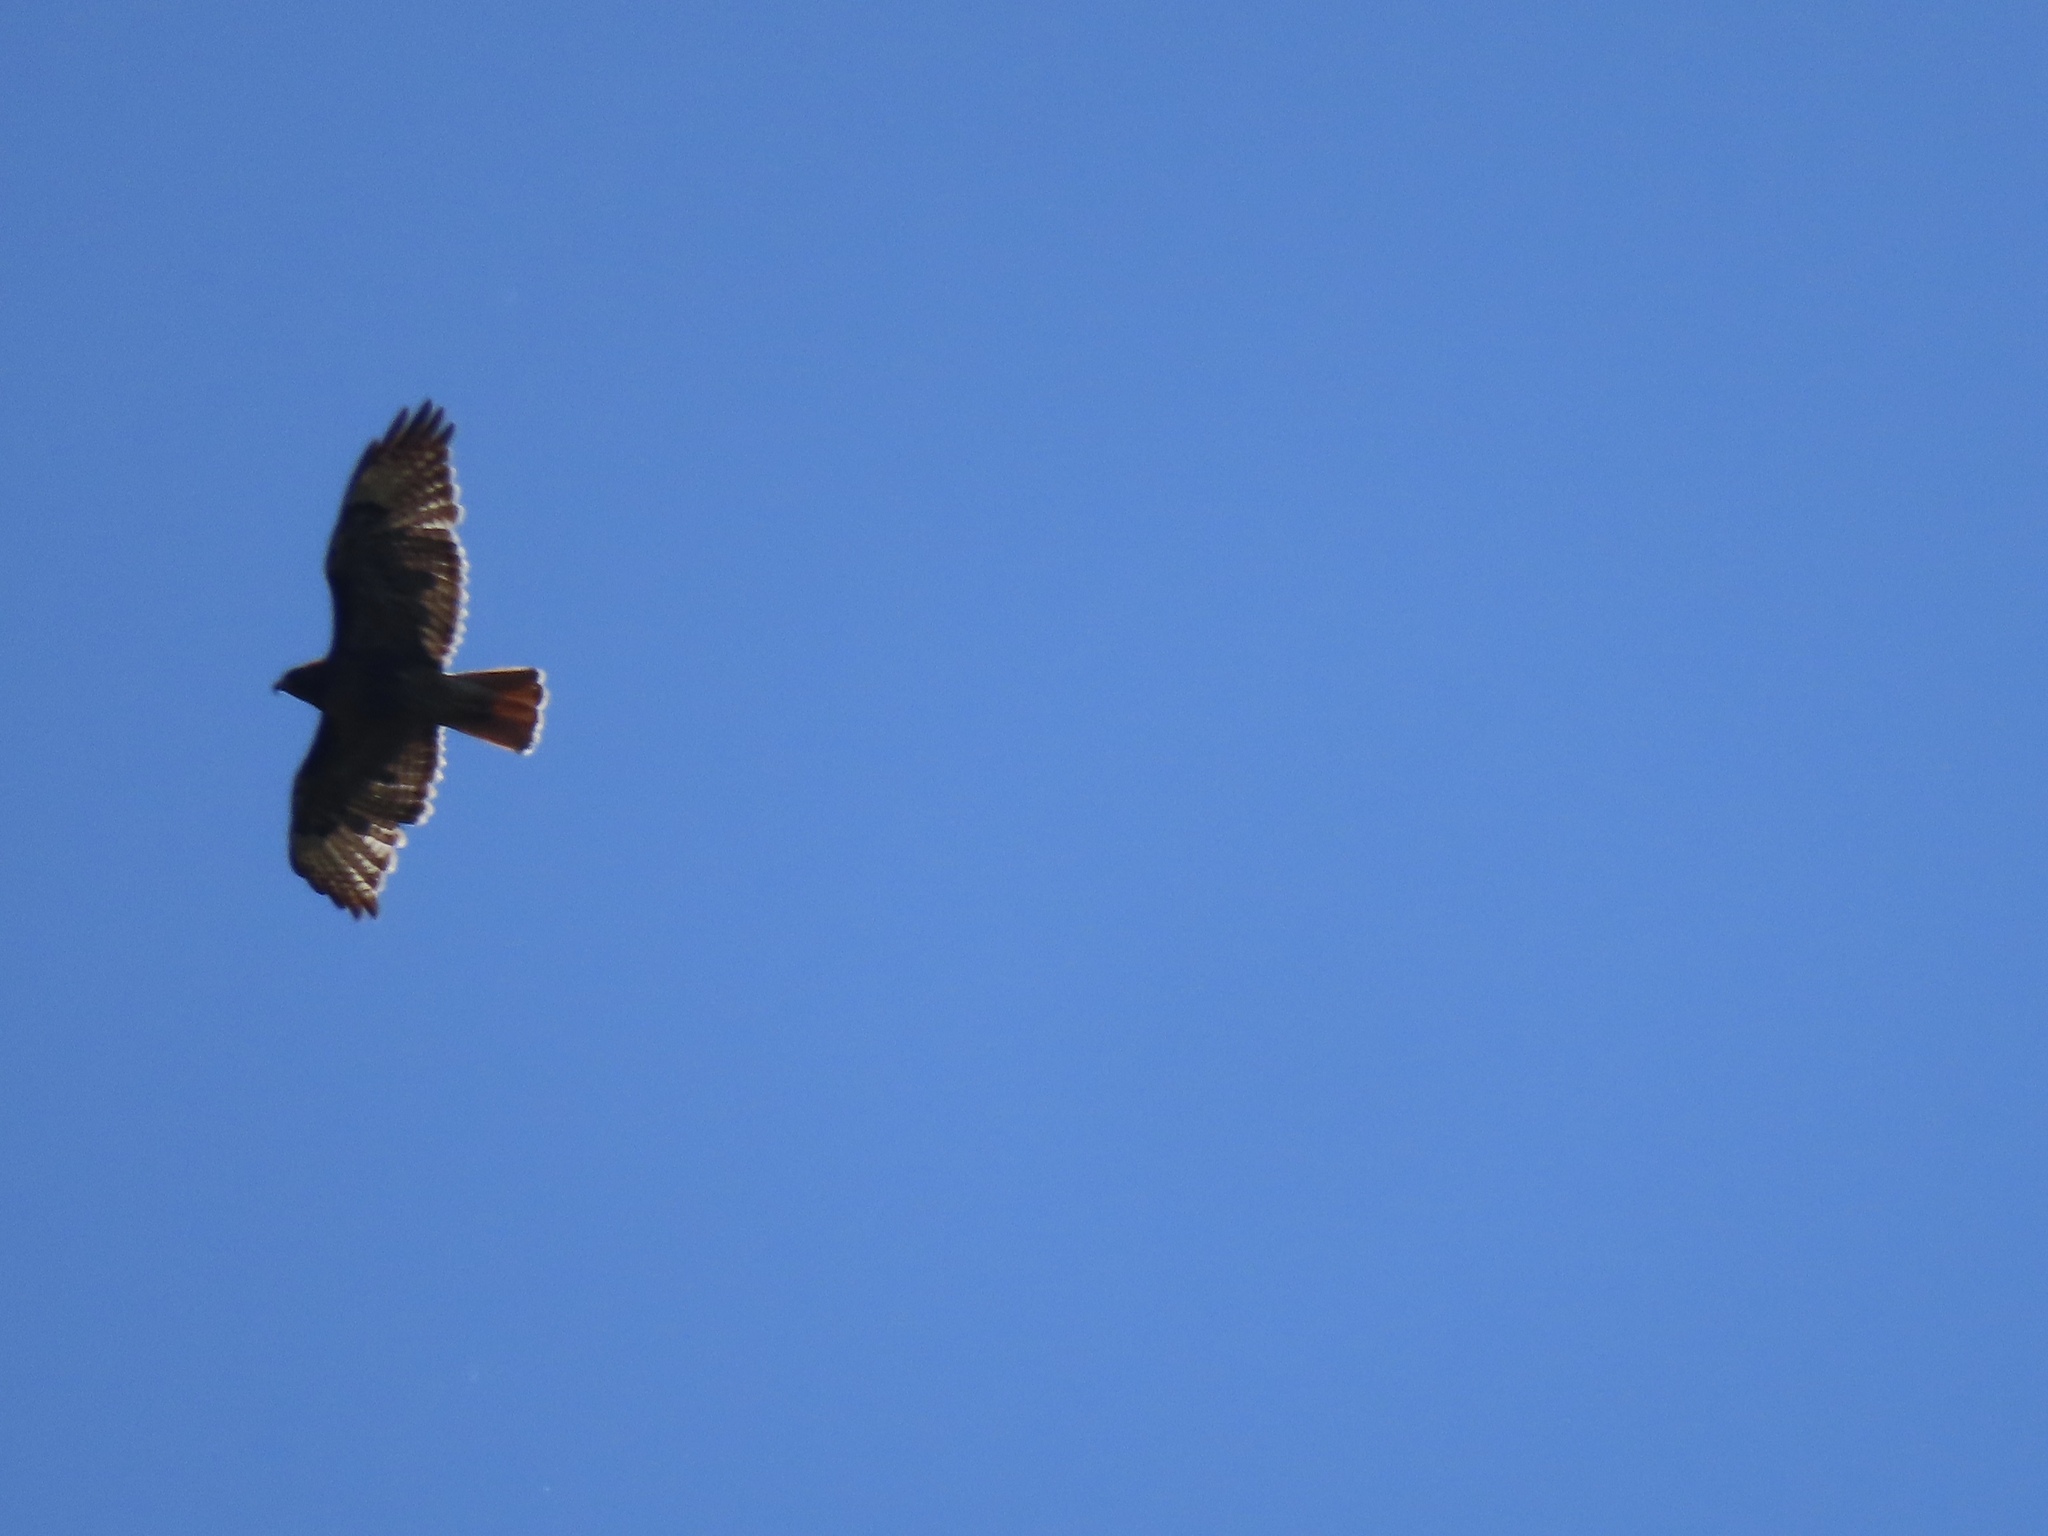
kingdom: Animalia
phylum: Chordata
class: Aves
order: Accipitriformes
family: Accipitridae
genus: Buteo
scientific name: Buteo jamaicensis
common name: Red-tailed hawk
